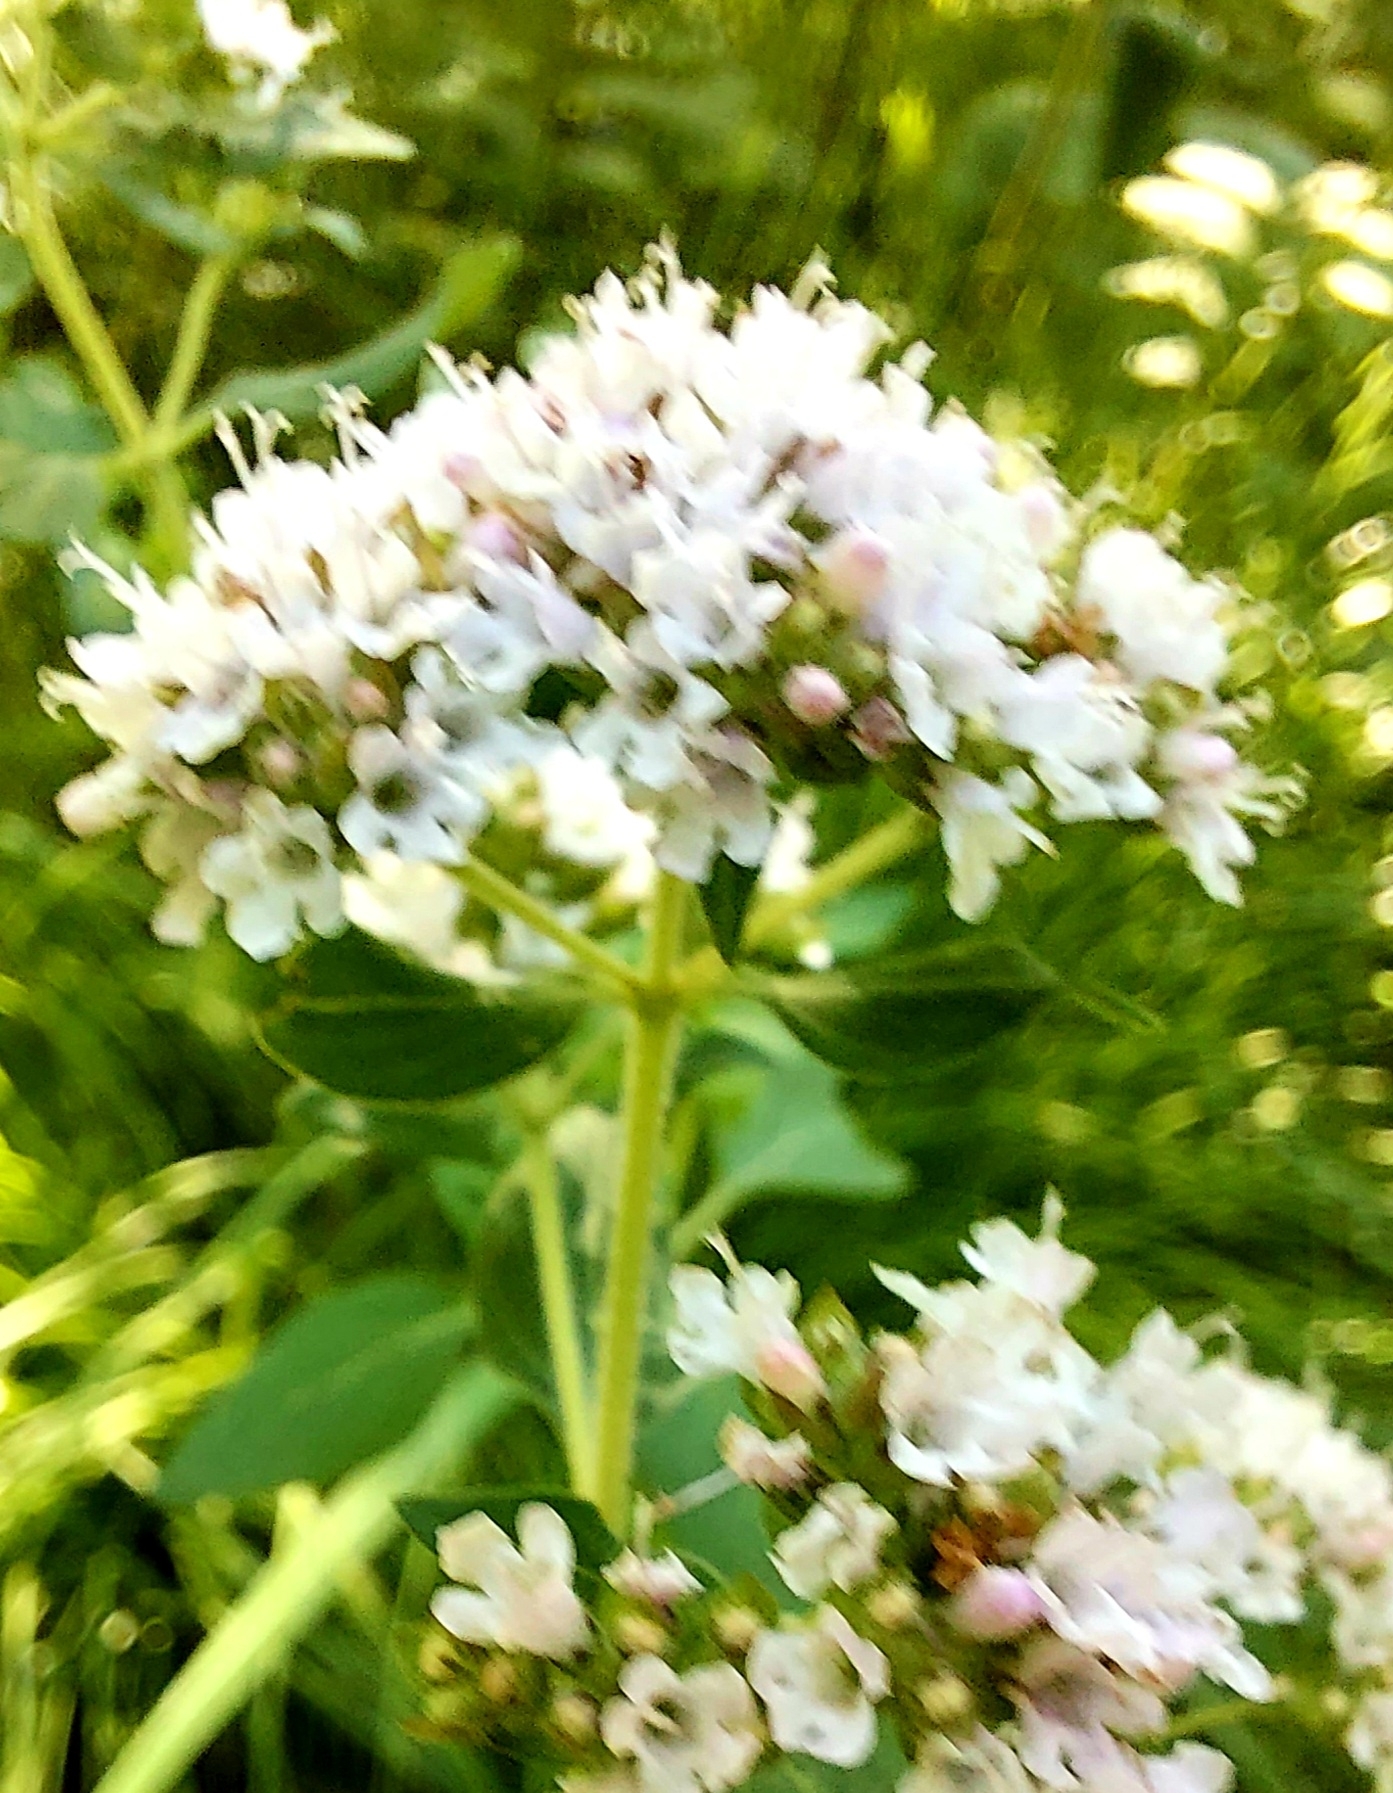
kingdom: Plantae
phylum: Tracheophyta
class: Magnoliopsida
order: Lamiales
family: Lamiaceae
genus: Origanum
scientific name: Origanum vulgare
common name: Wild marjoram
